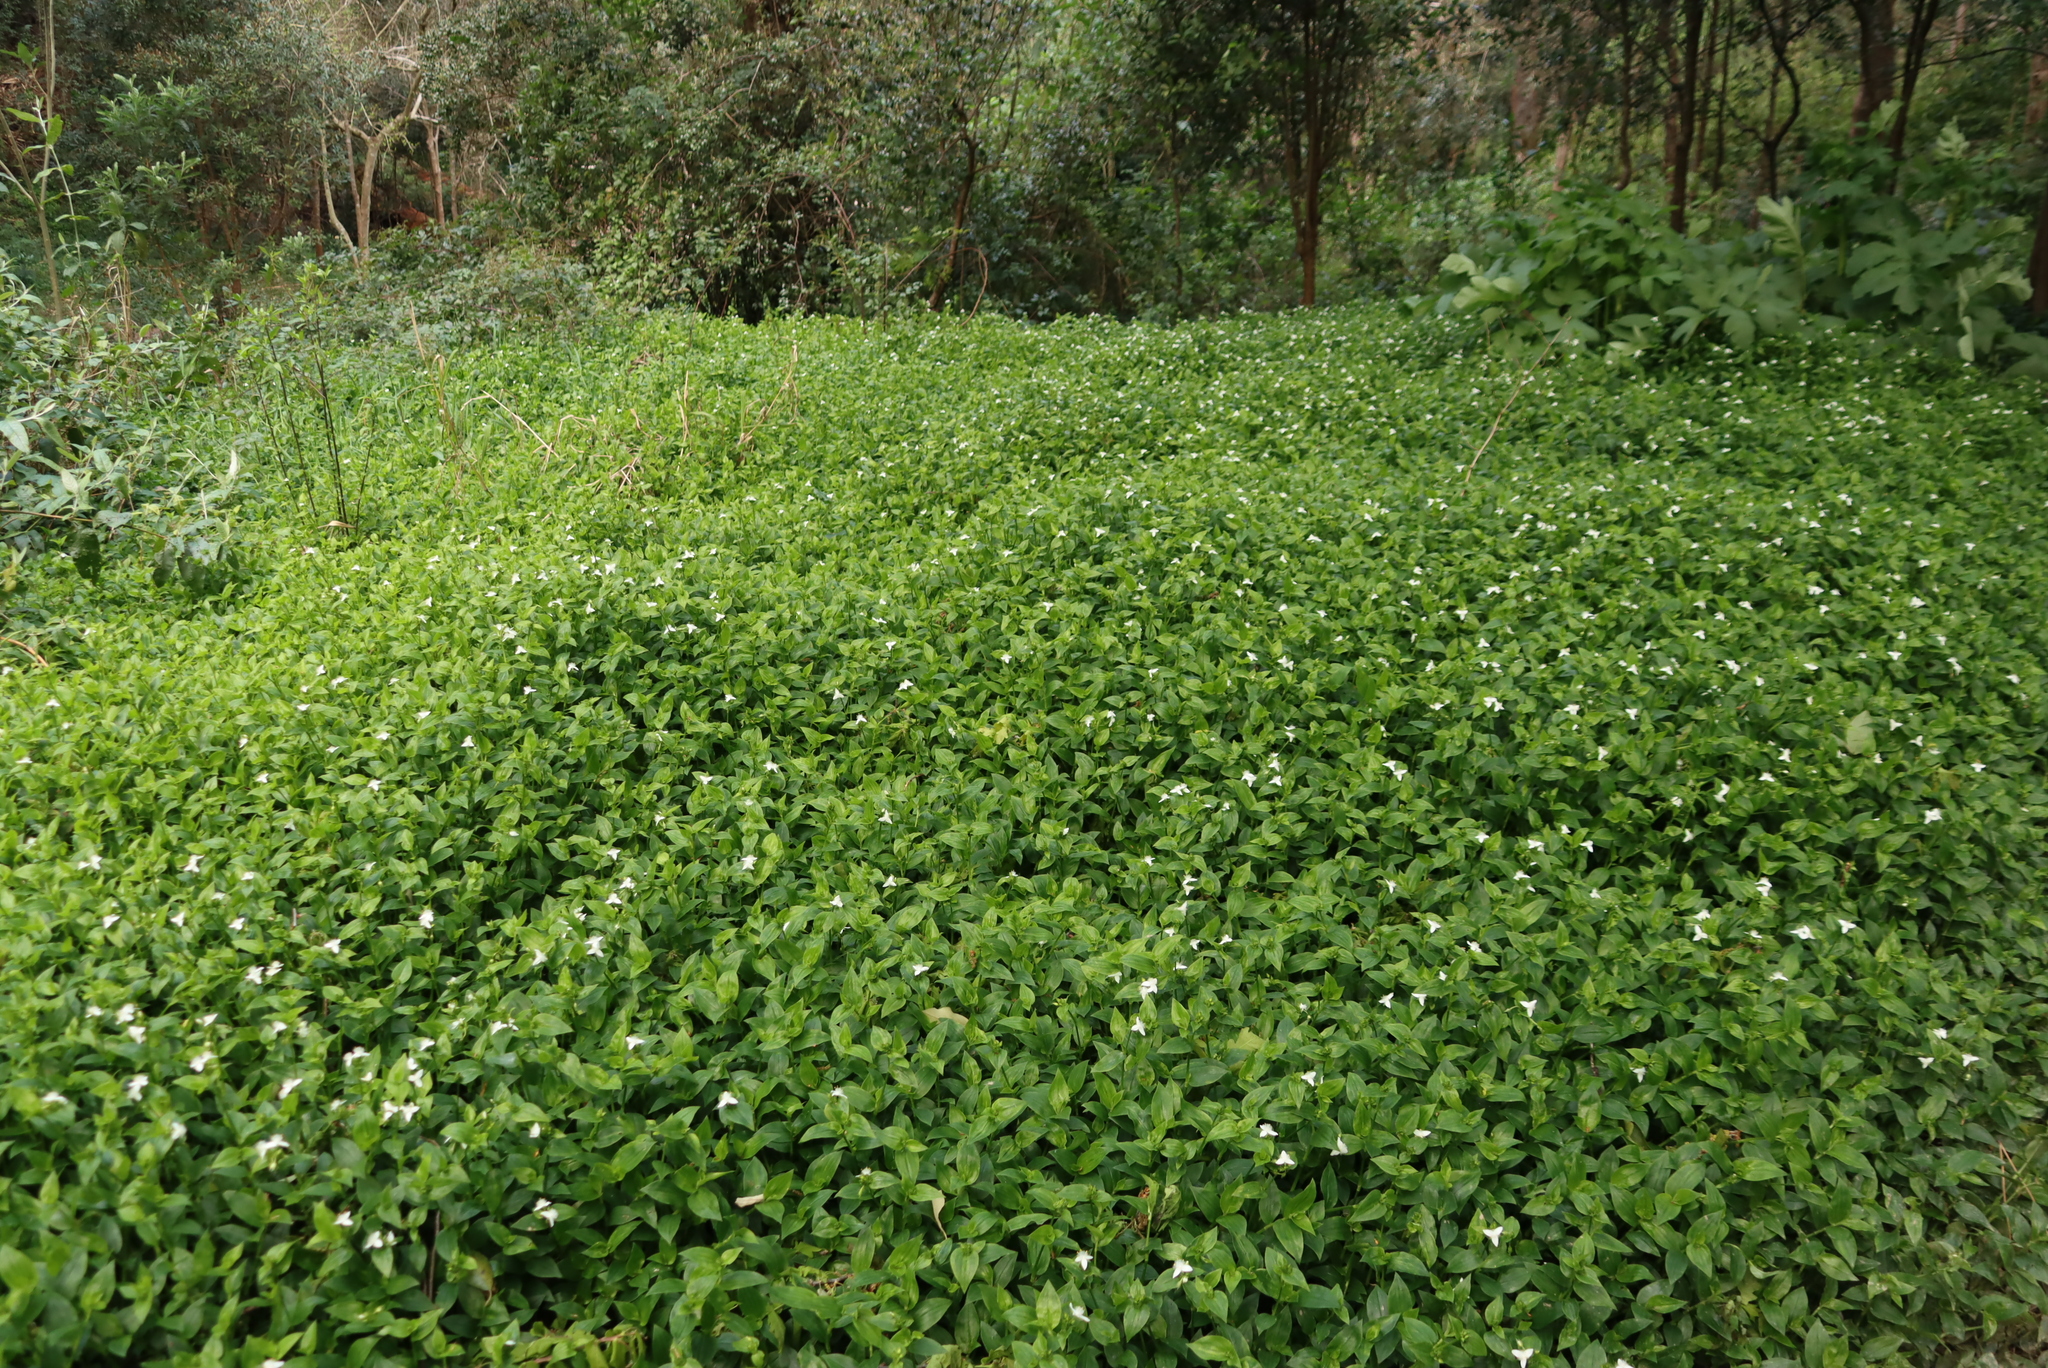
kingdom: Plantae
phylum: Tracheophyta
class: Liliopsida
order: Commelinales
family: Commelinaceae
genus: Tradescantia
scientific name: Tradescantia fluminensis
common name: Wandering-jew
